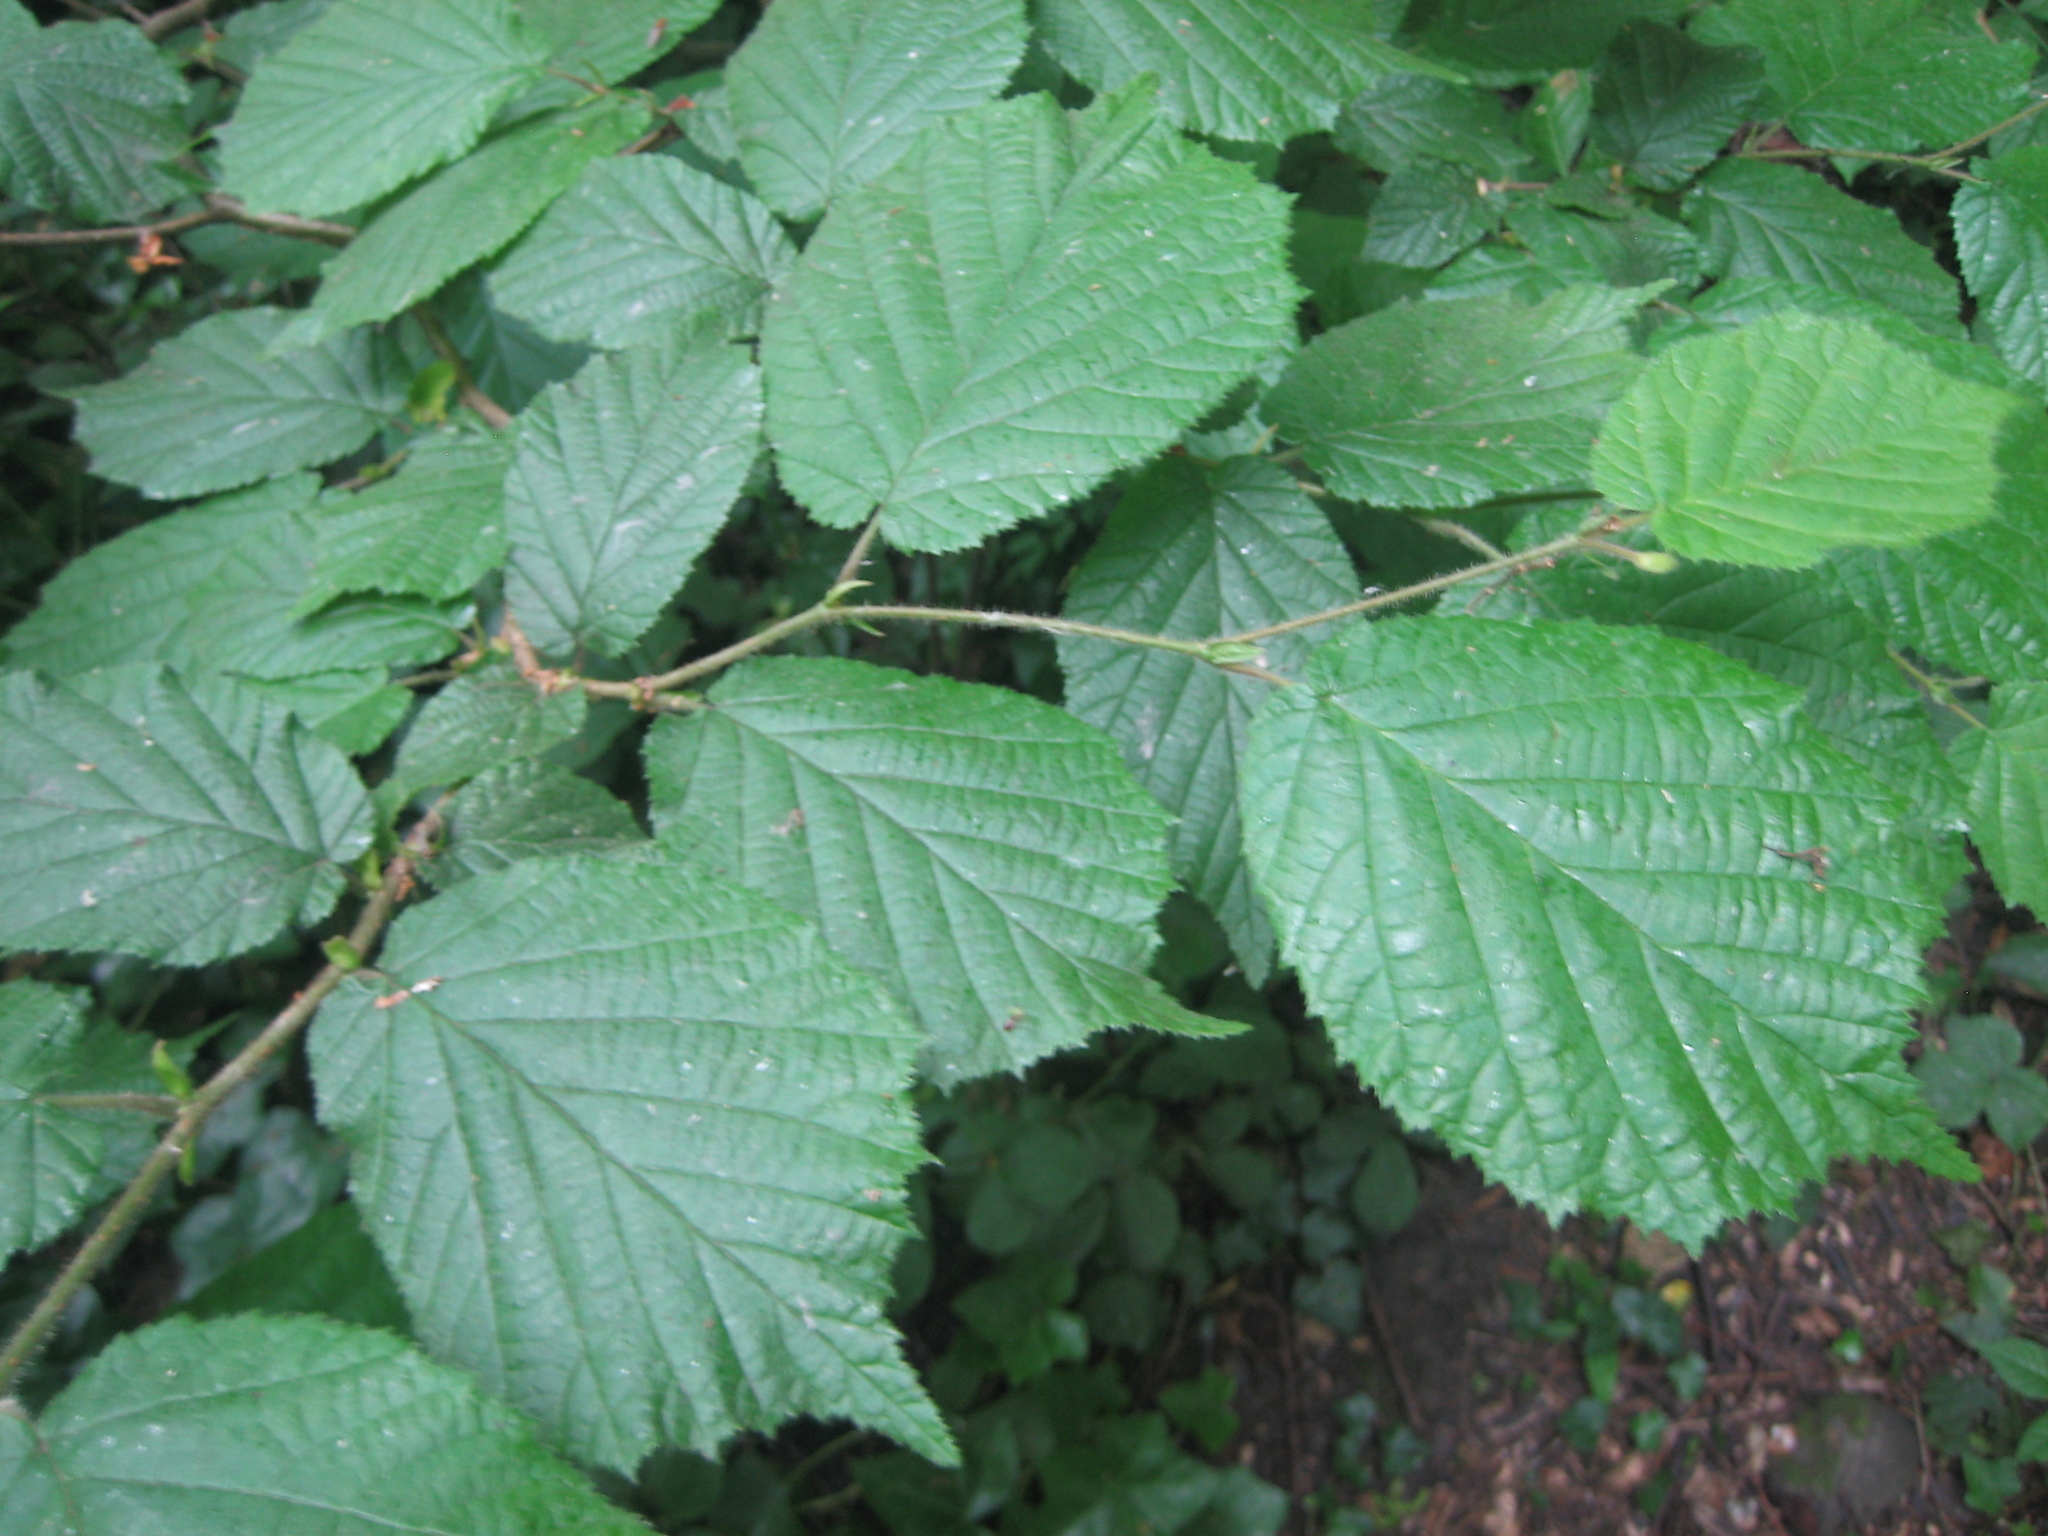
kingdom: Plantae
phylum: Tracheophyta
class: Magnoliopsida
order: Fagales
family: Betulaceae
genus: Corylus
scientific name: Corylus avellana
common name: European hazel
